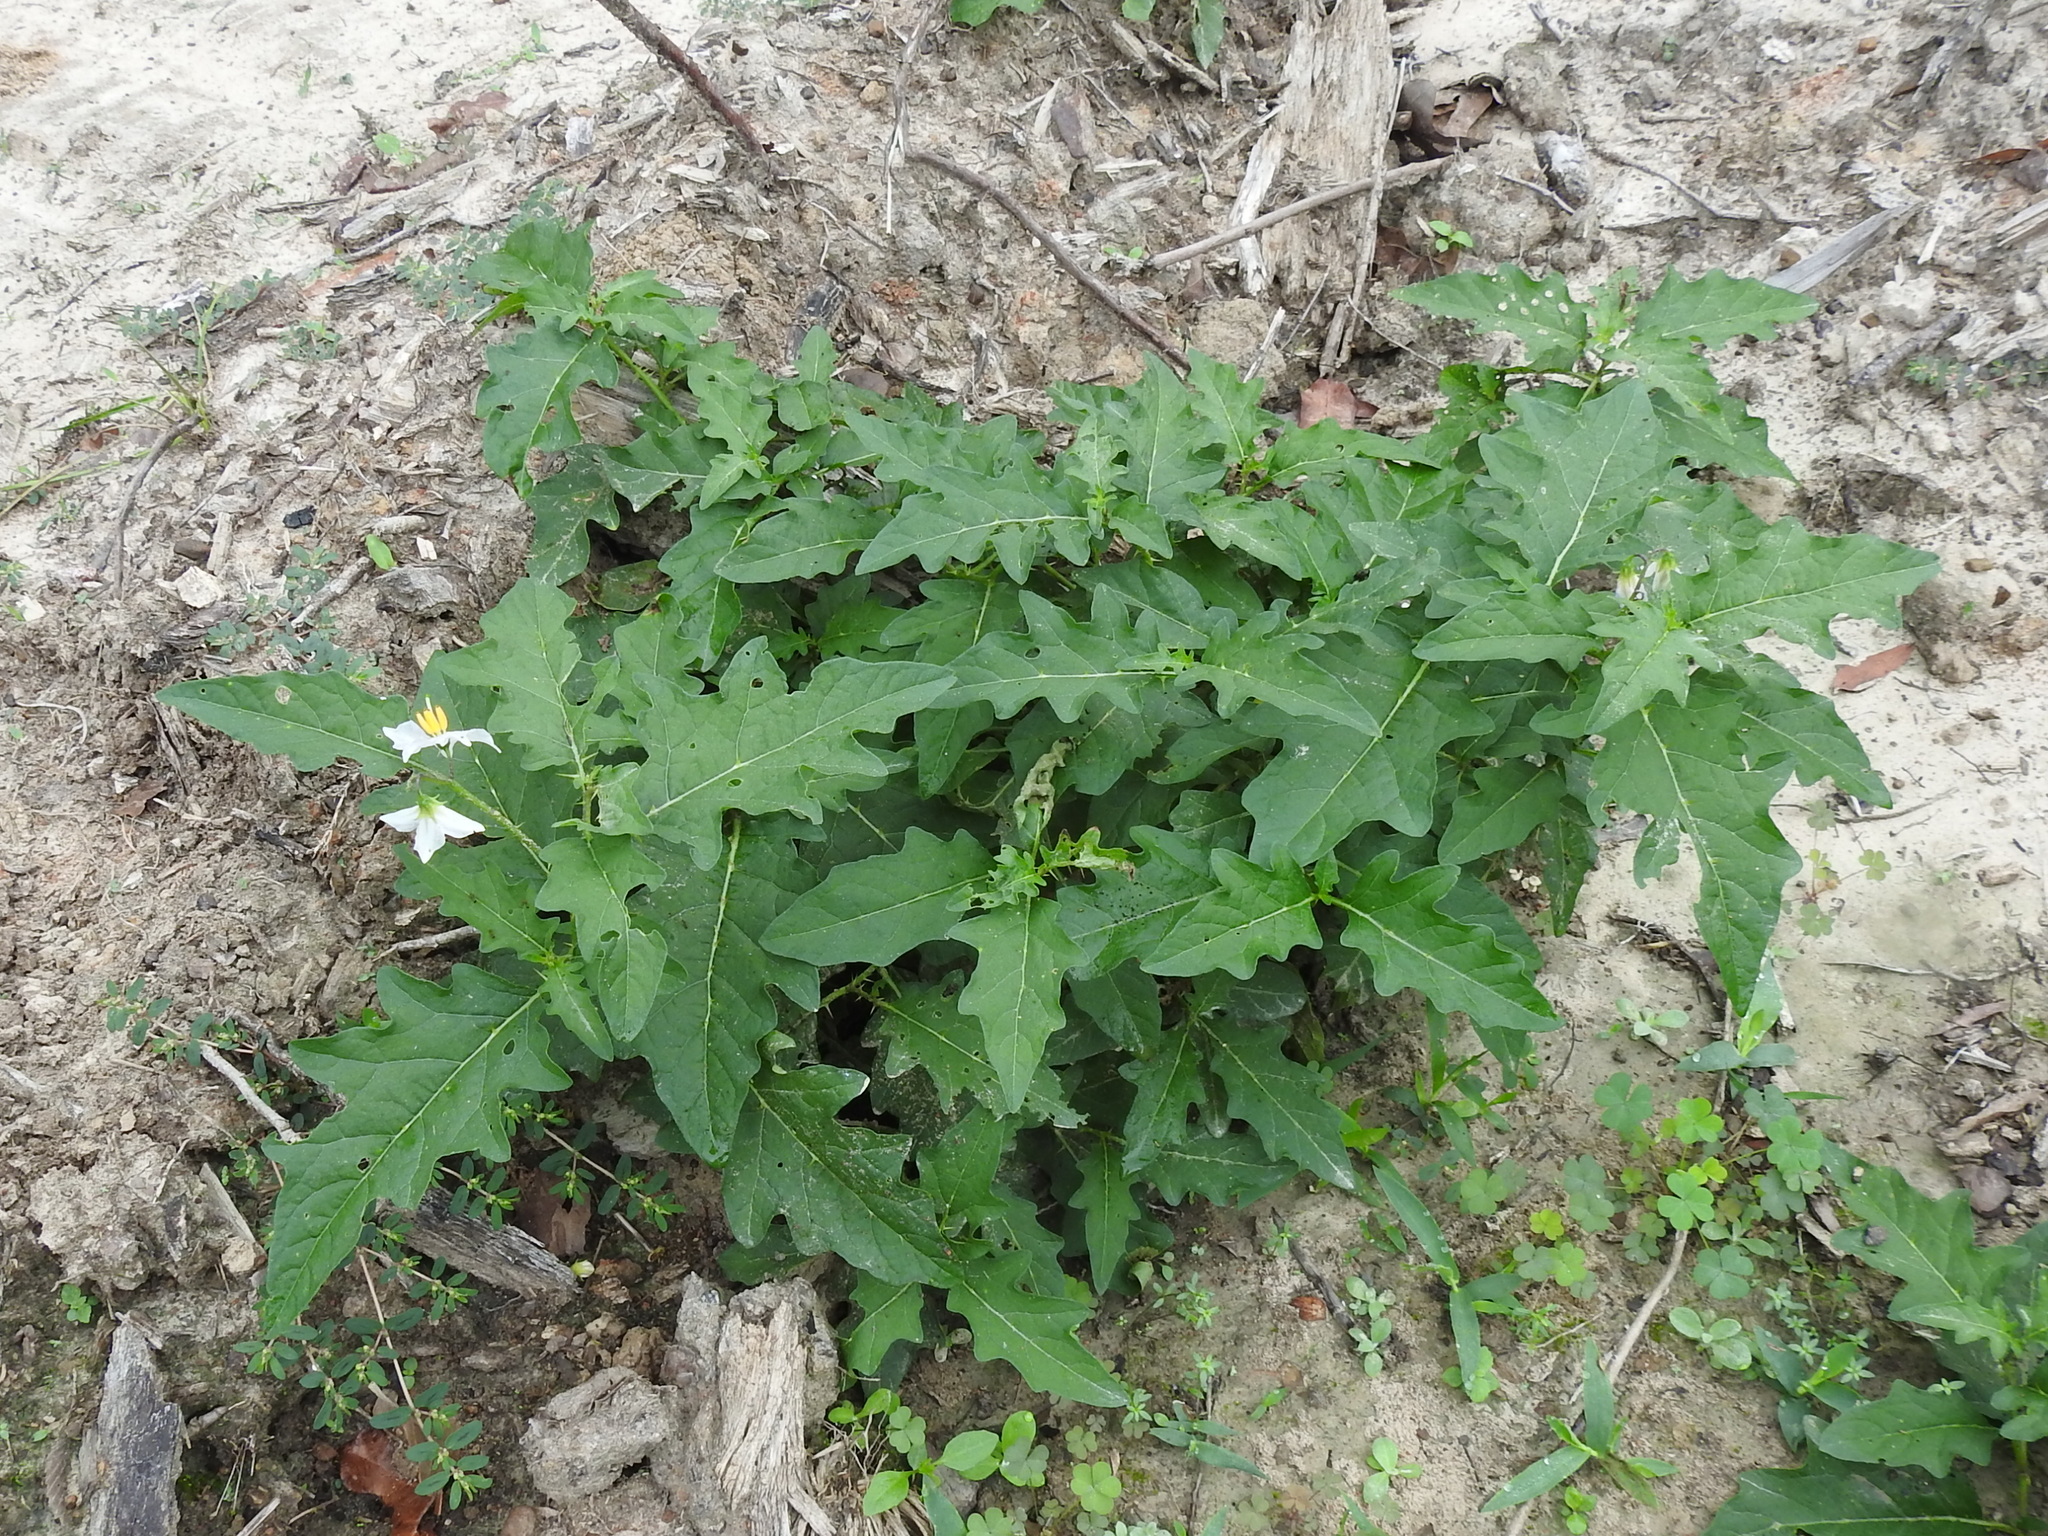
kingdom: Plantae
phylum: Tracheophyta
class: Magnoliopsida
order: Solanales
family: Solanaceae
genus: Solanum
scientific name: Solanum carolinense
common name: Horse-nettle
